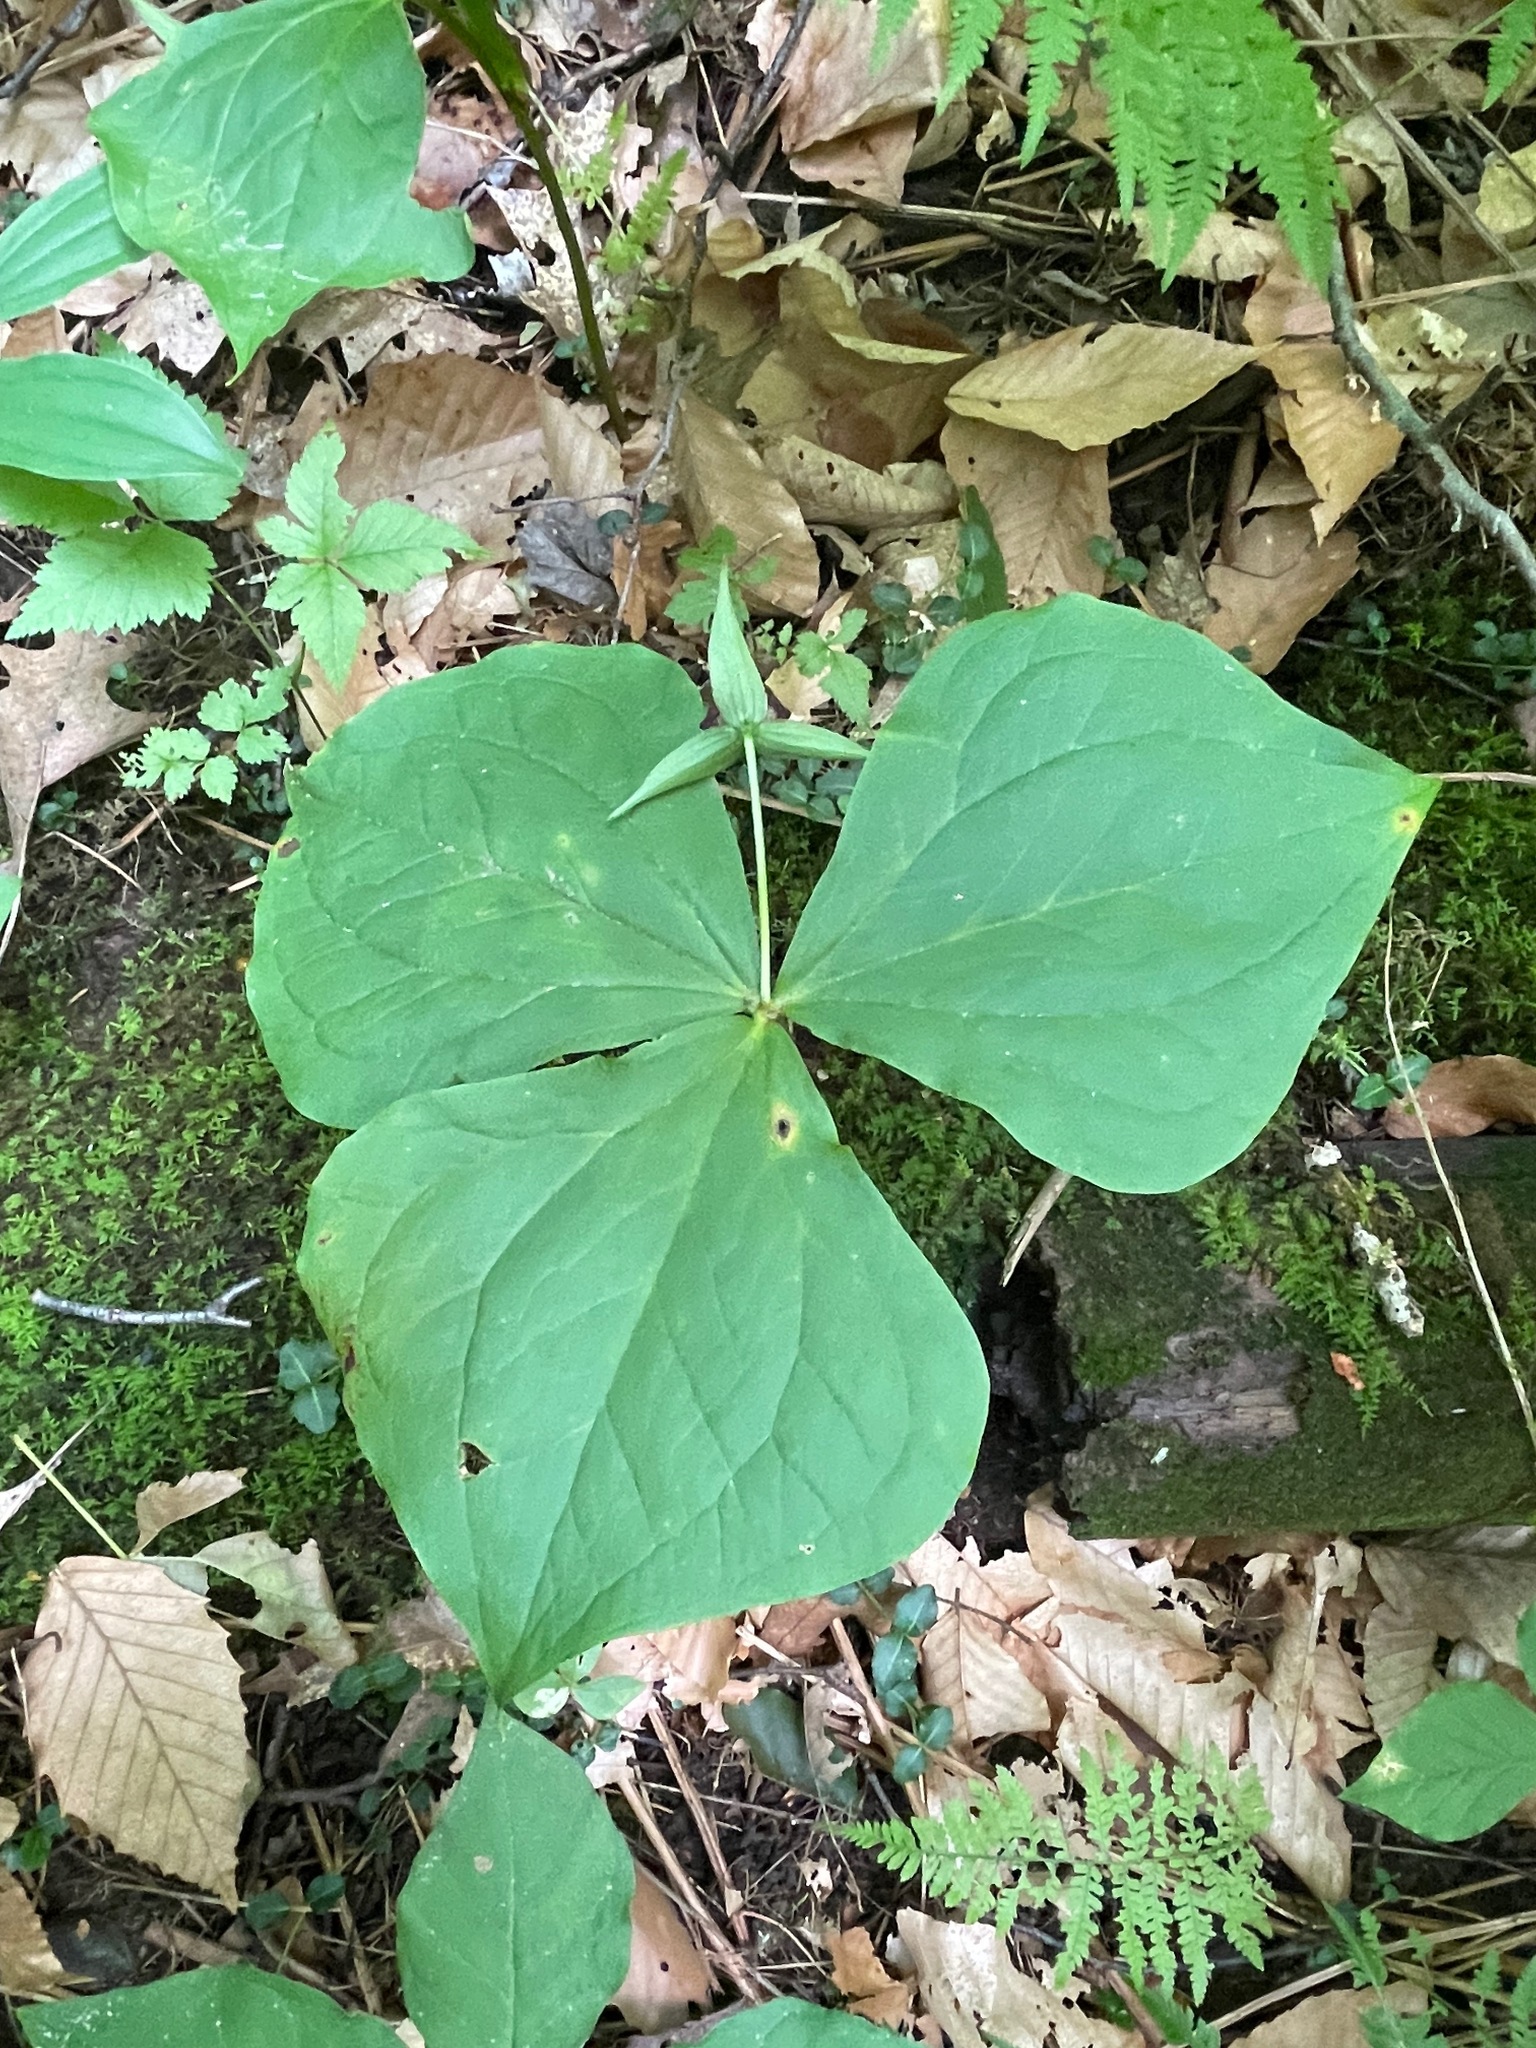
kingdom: Plantae
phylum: Tracheophyta
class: Liliopsida
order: Liliales
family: Melanthiaceae
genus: Trillium
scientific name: Trillium erectum
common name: Purple trillium
